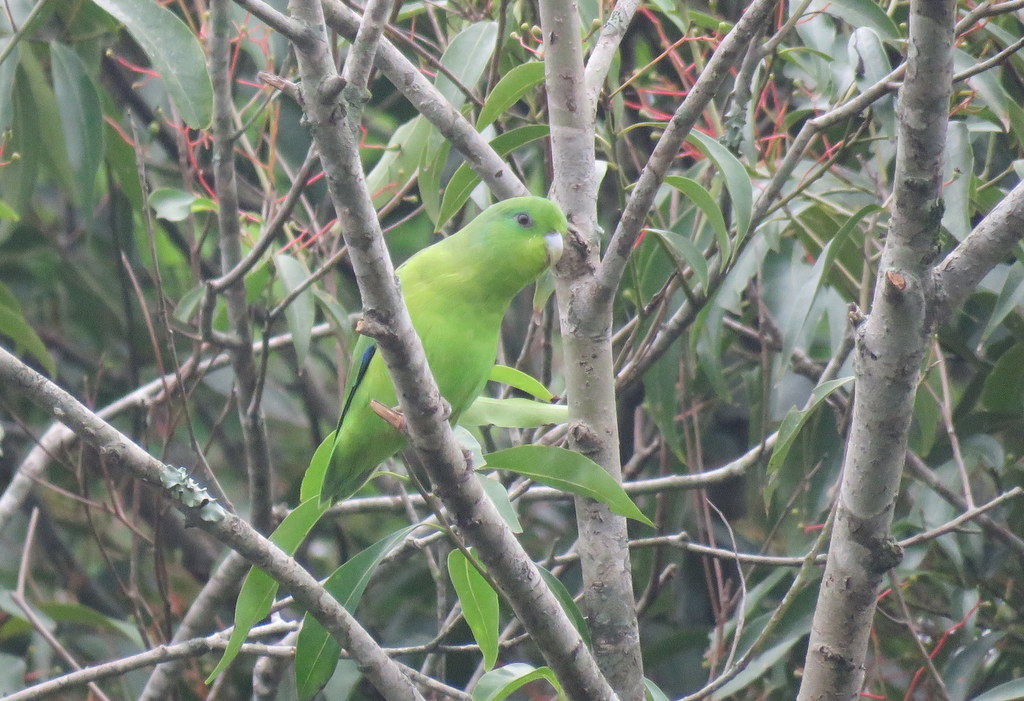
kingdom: Animalia
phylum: Chordata
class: Aves
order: Psittaciformes
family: Psittacidae
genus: Forpus
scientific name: Forpus xanthopterygius
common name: Blue-winged parrotlet
